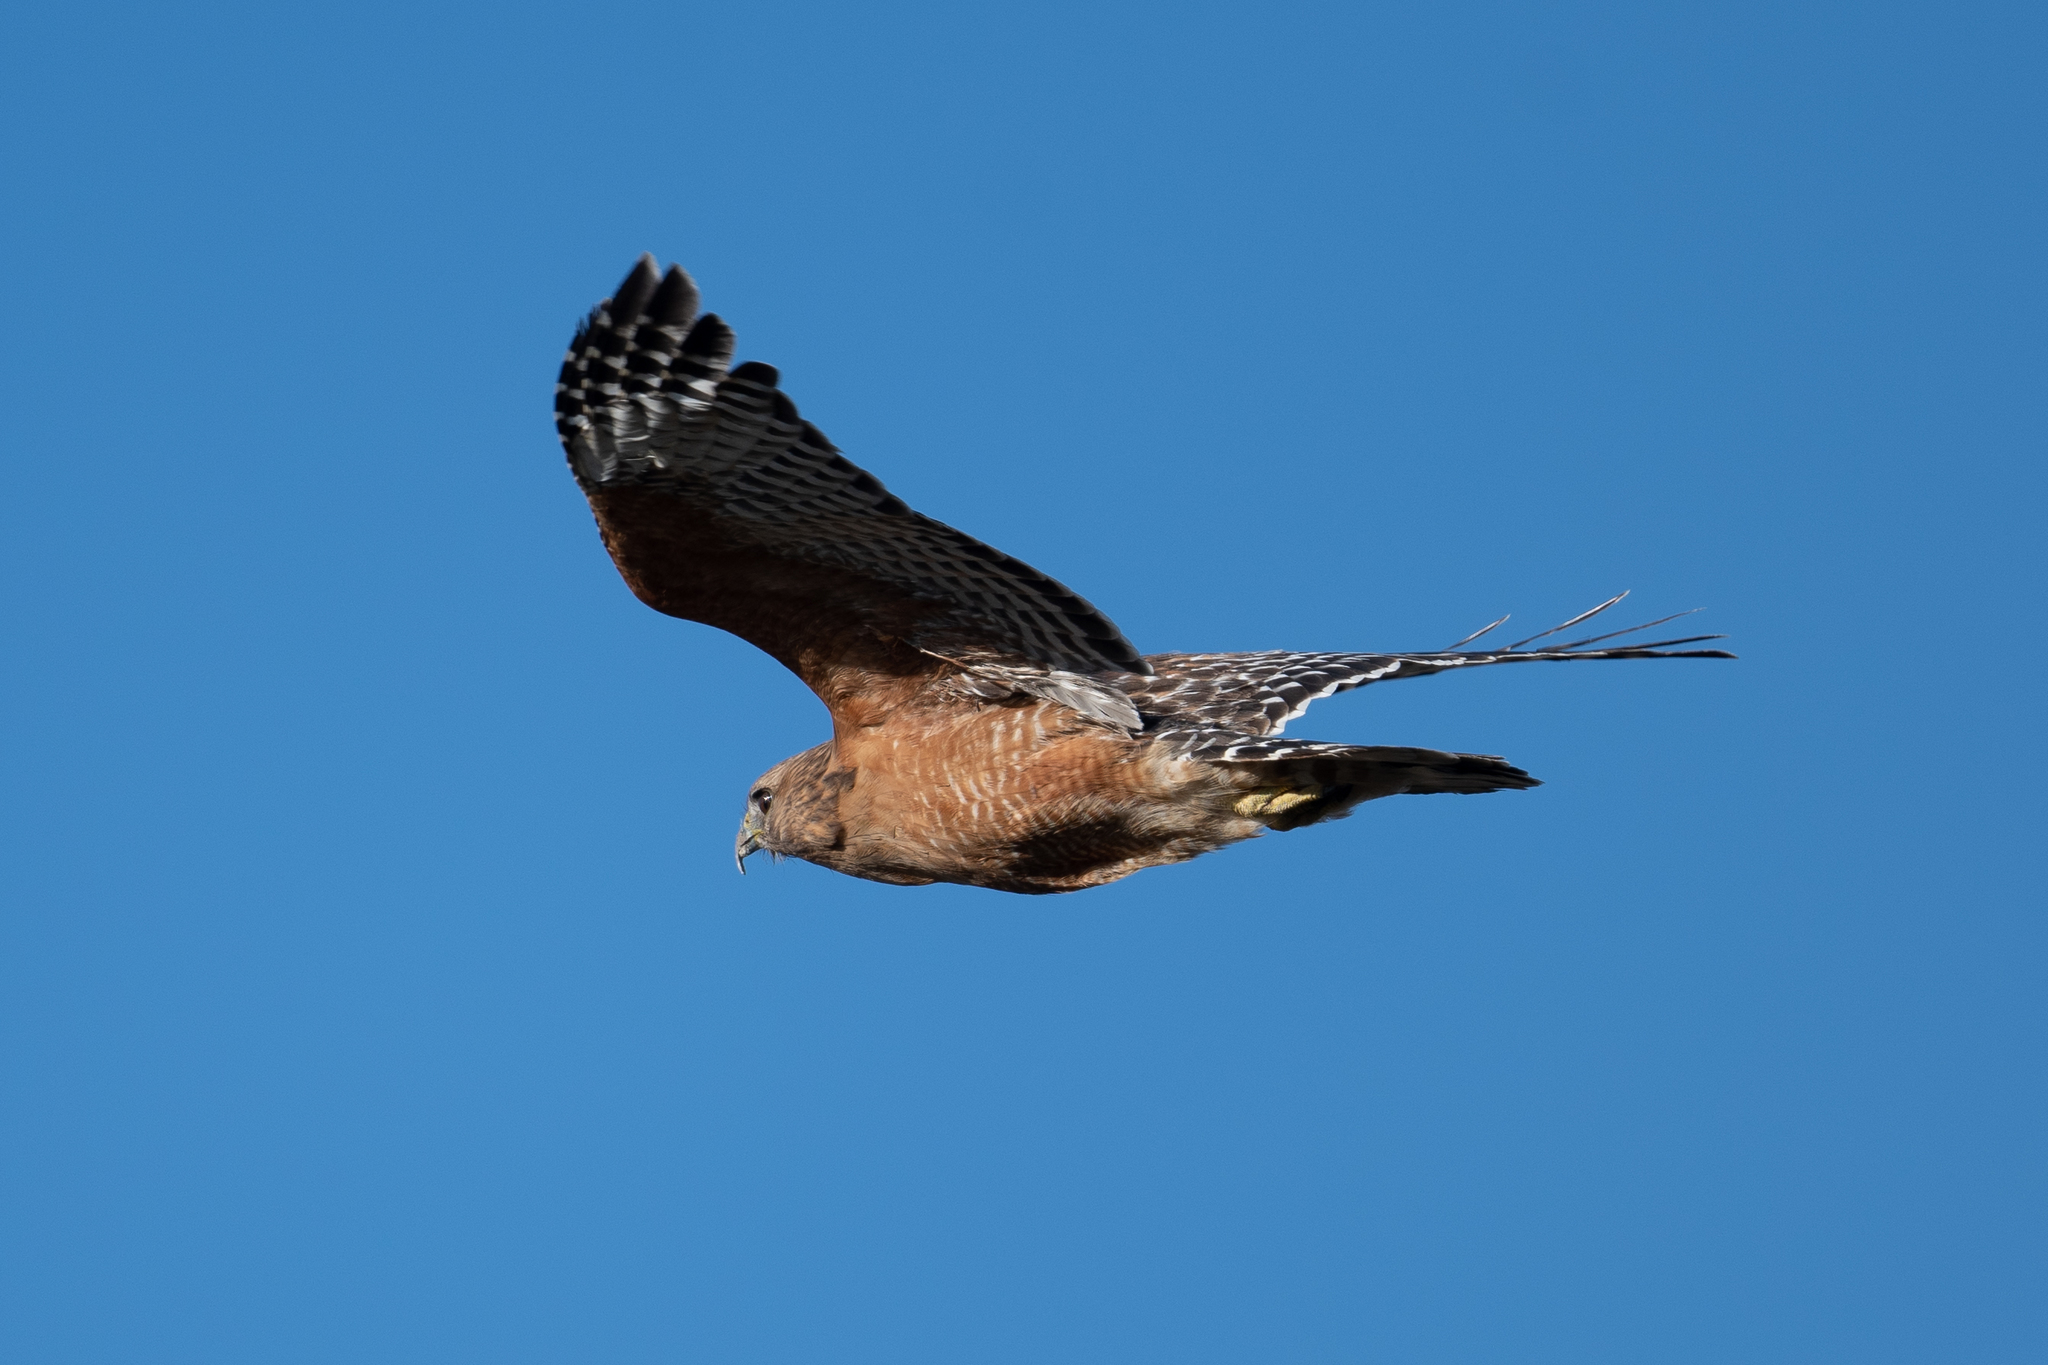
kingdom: Animalia
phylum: Chordata
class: Aves
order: Accipitriformes
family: Accipitridae
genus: Buteo
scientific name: Buteo lineatus
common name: Red-shouldered hawk
